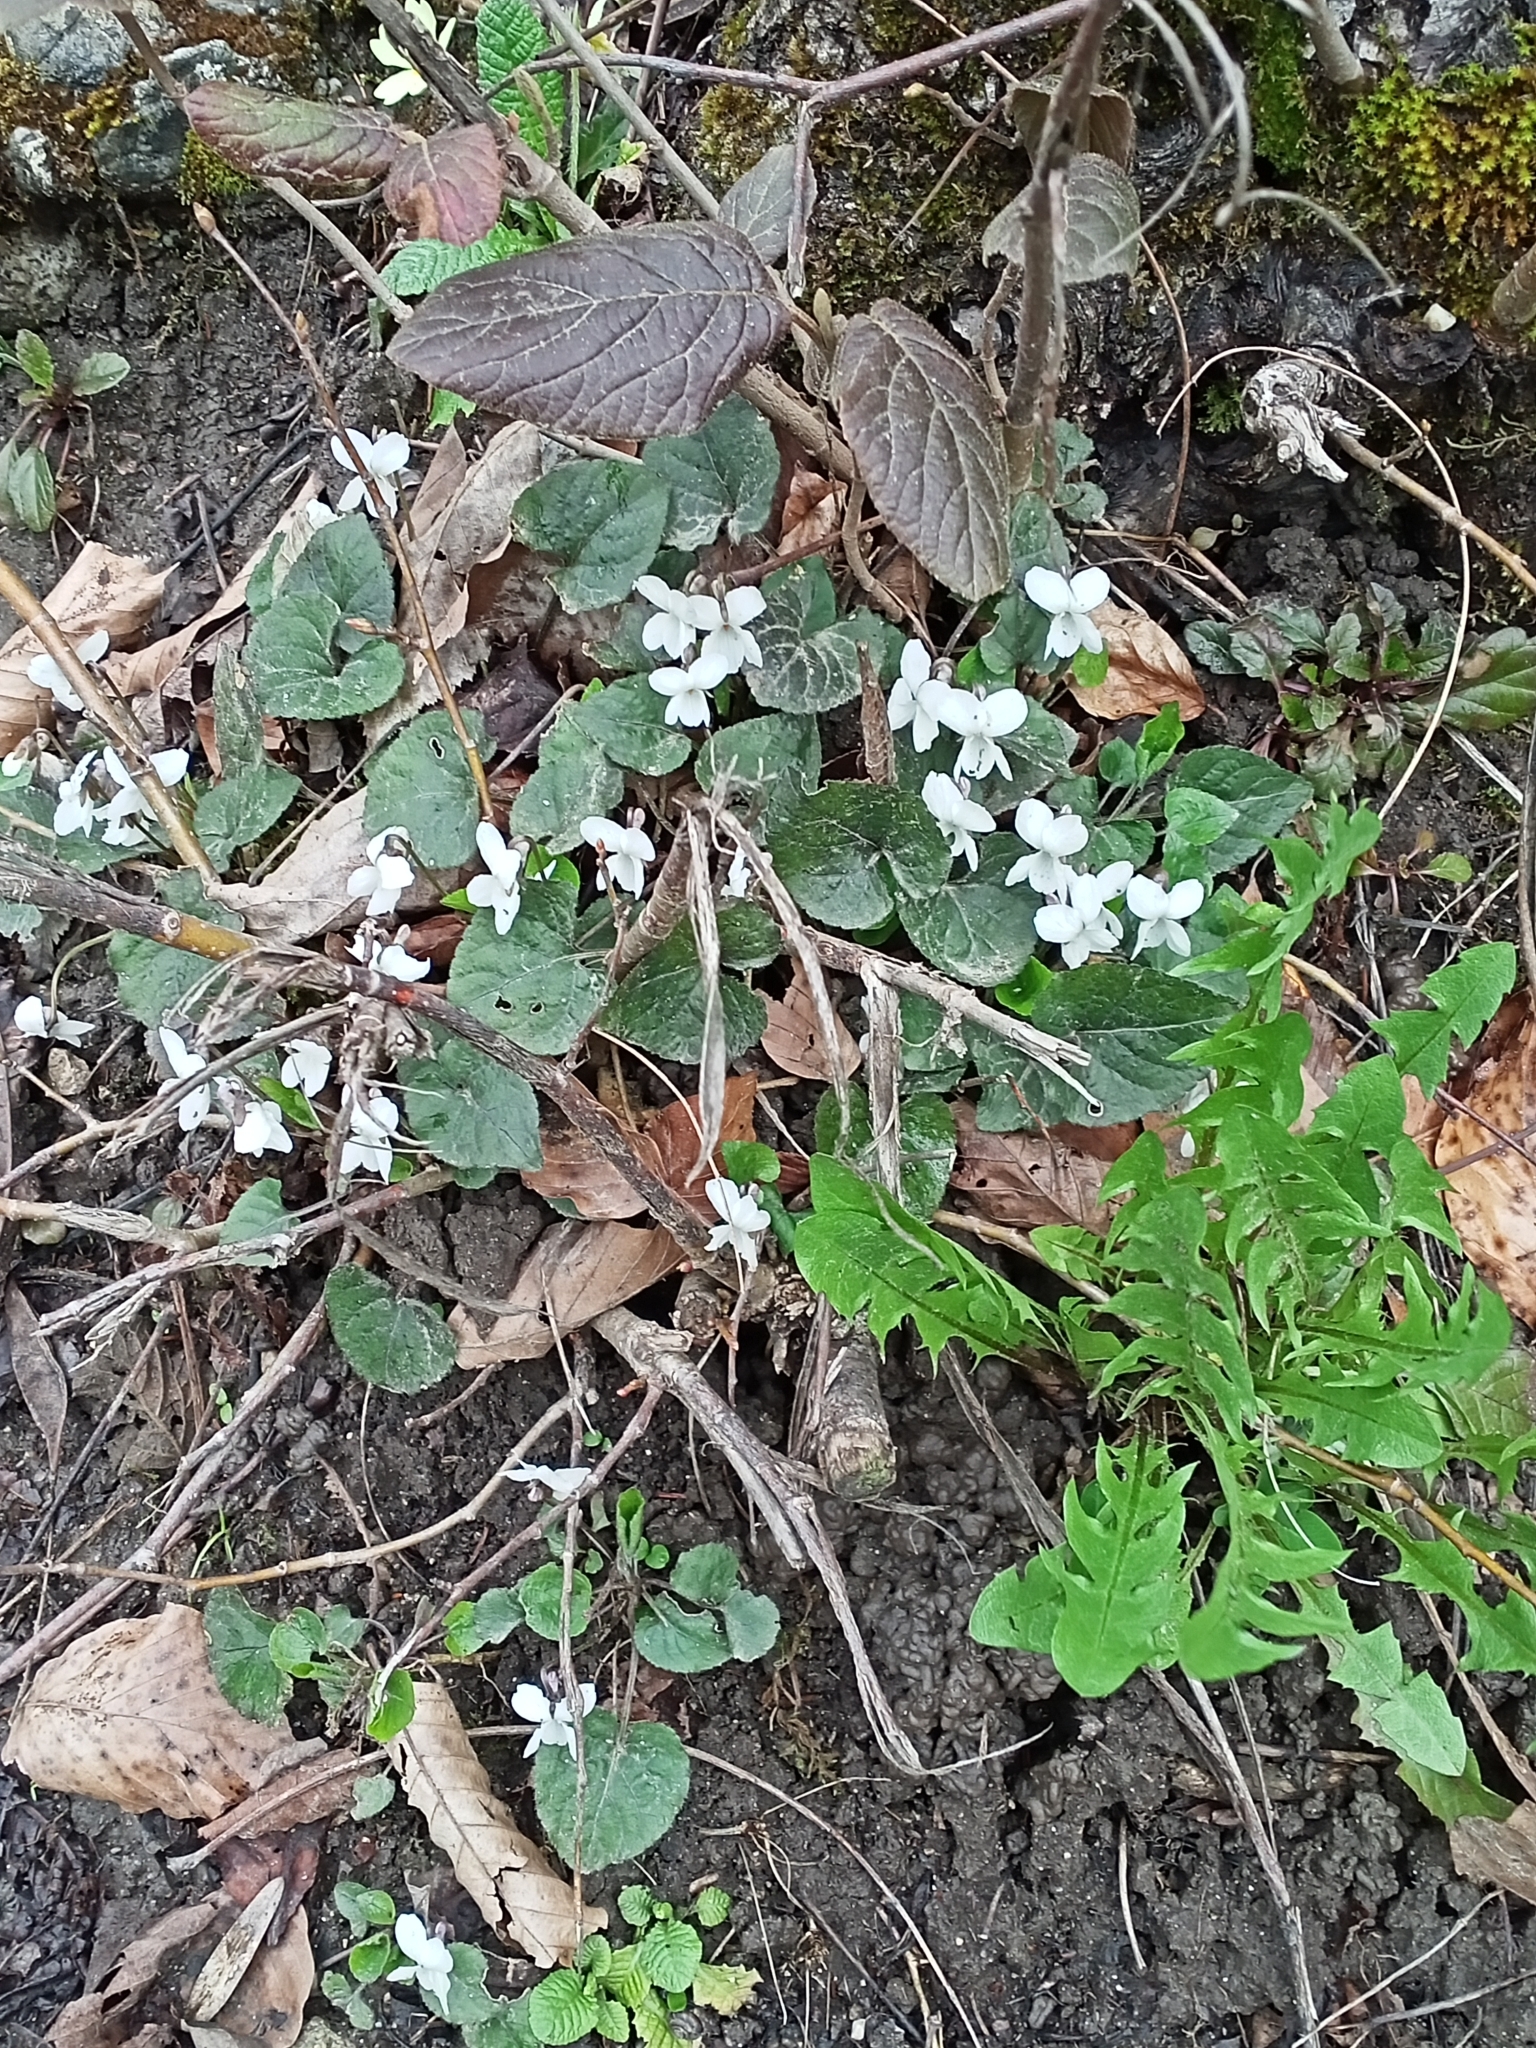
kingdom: Plantae
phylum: Tracheophyta
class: Magnoliopsida
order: Malpighiales
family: Violaceae
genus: Viola
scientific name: Viola alba
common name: White violet
